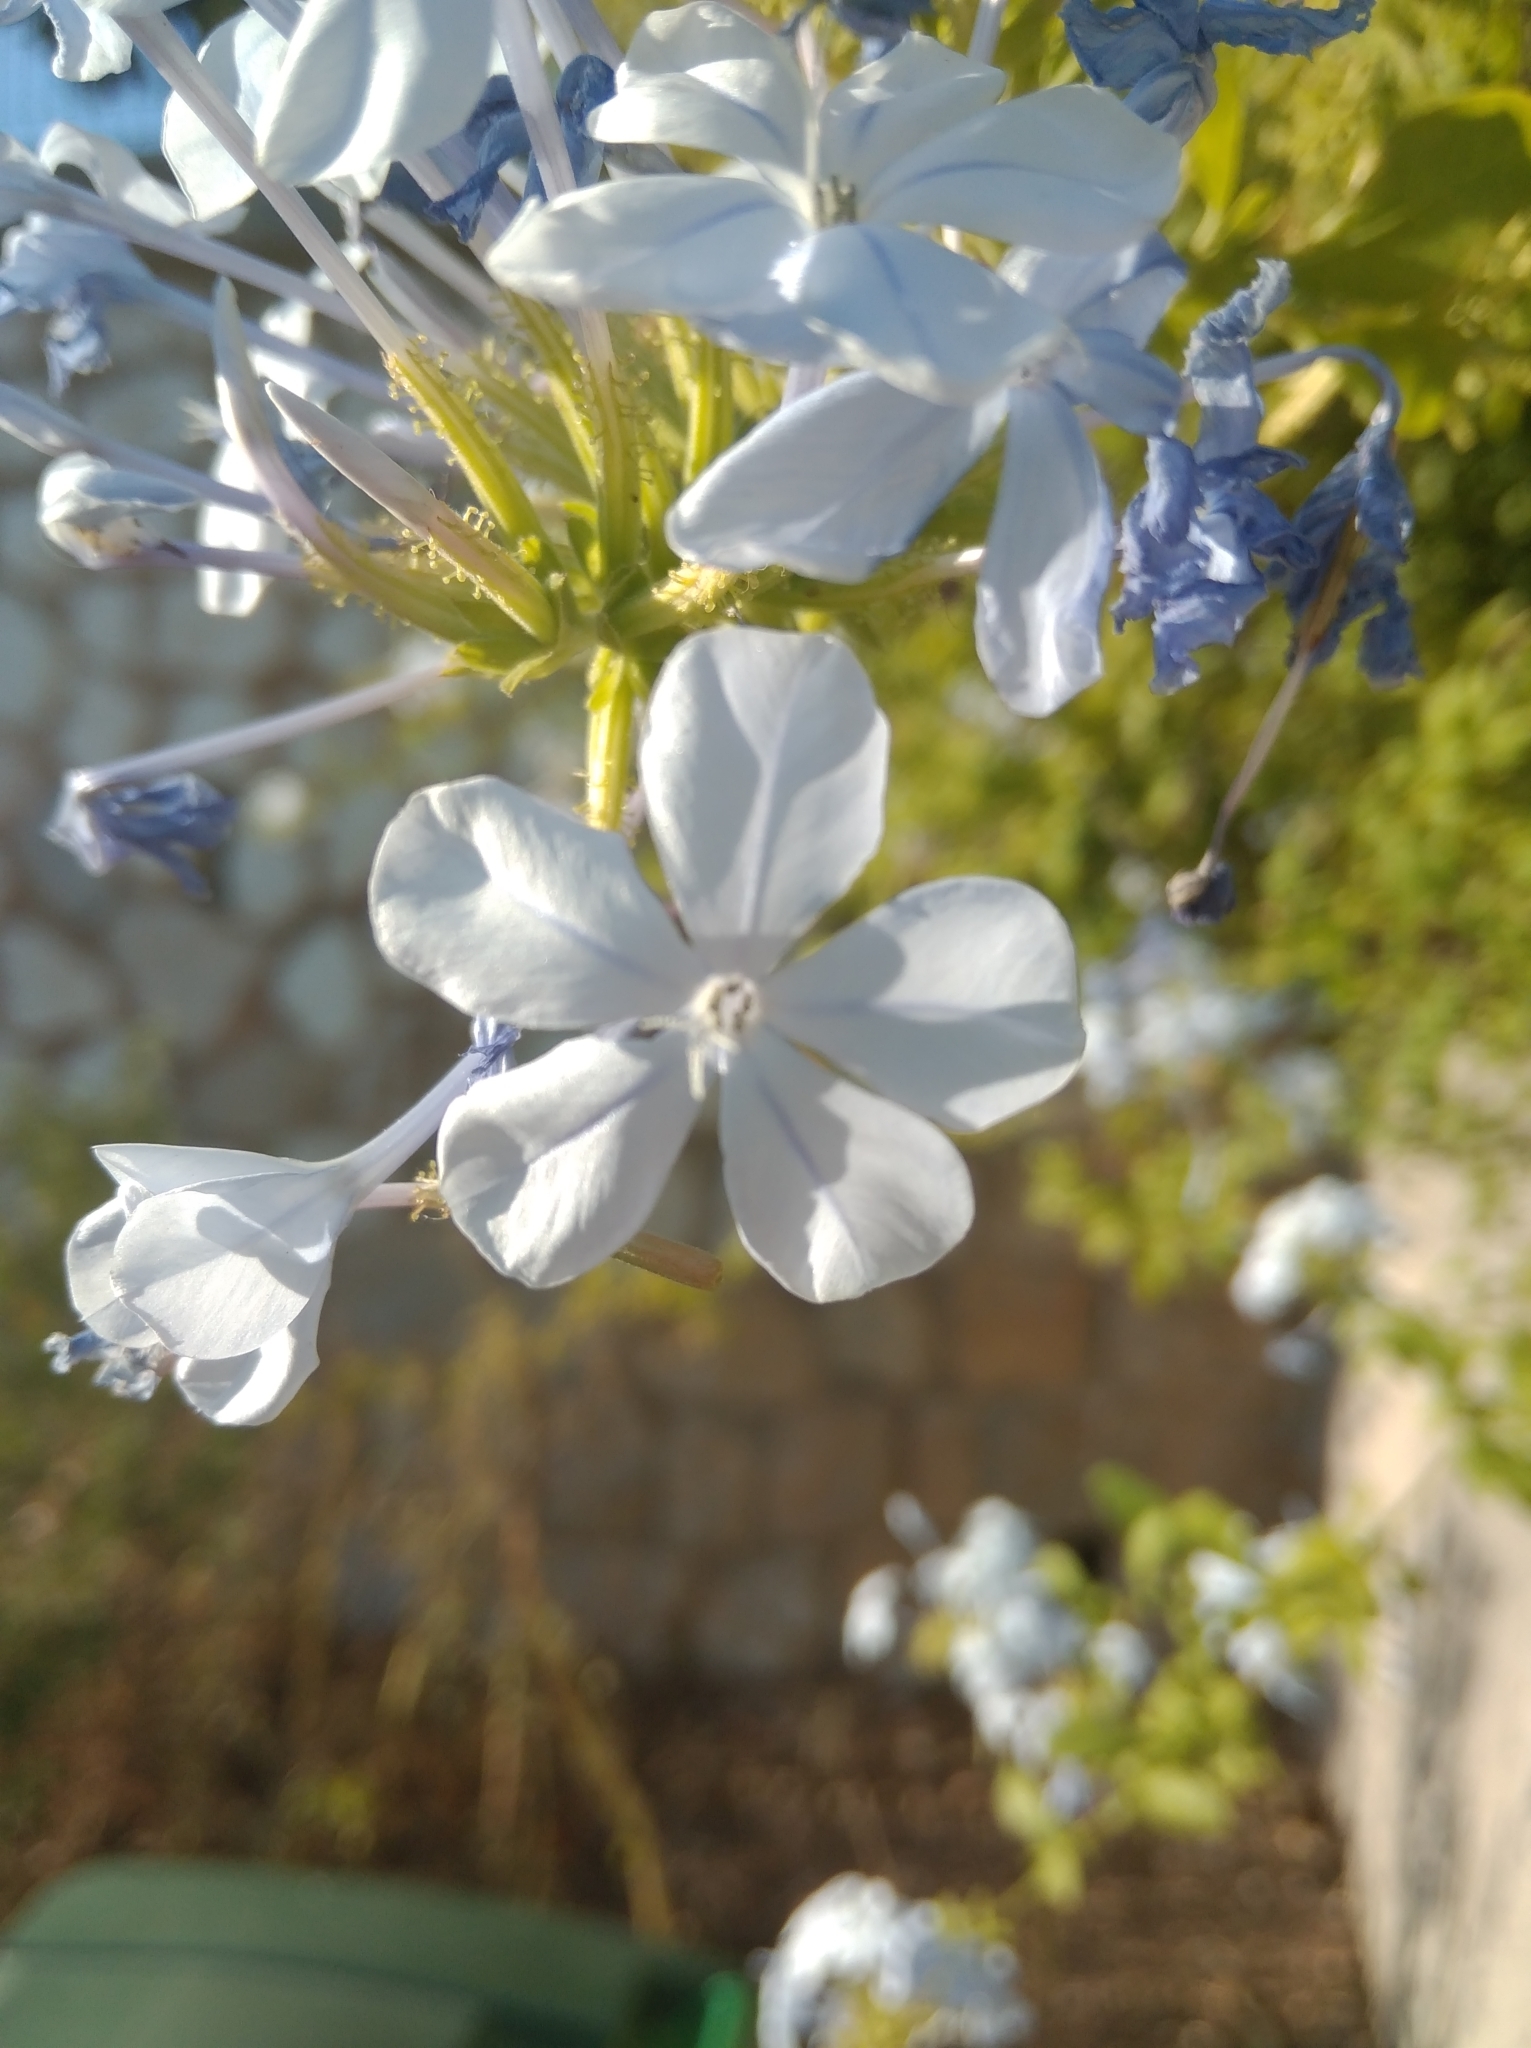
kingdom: Plantae
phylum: Tracheophyta
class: Magnoliopsida
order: Caryophyllales
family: Plumbaginaceae
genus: Plumbago
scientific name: Plumbago auriculata
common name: Cape leadwort
